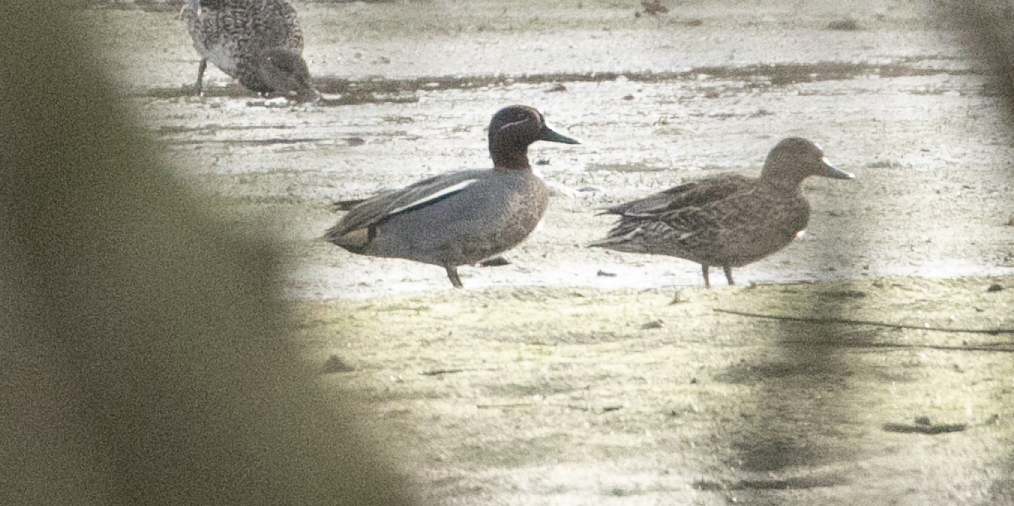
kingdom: Animalia
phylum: Chordata
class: Aves
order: Anseriformes
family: Anatidae
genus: Anas
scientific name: Anas crecca
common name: Eurasian teal
